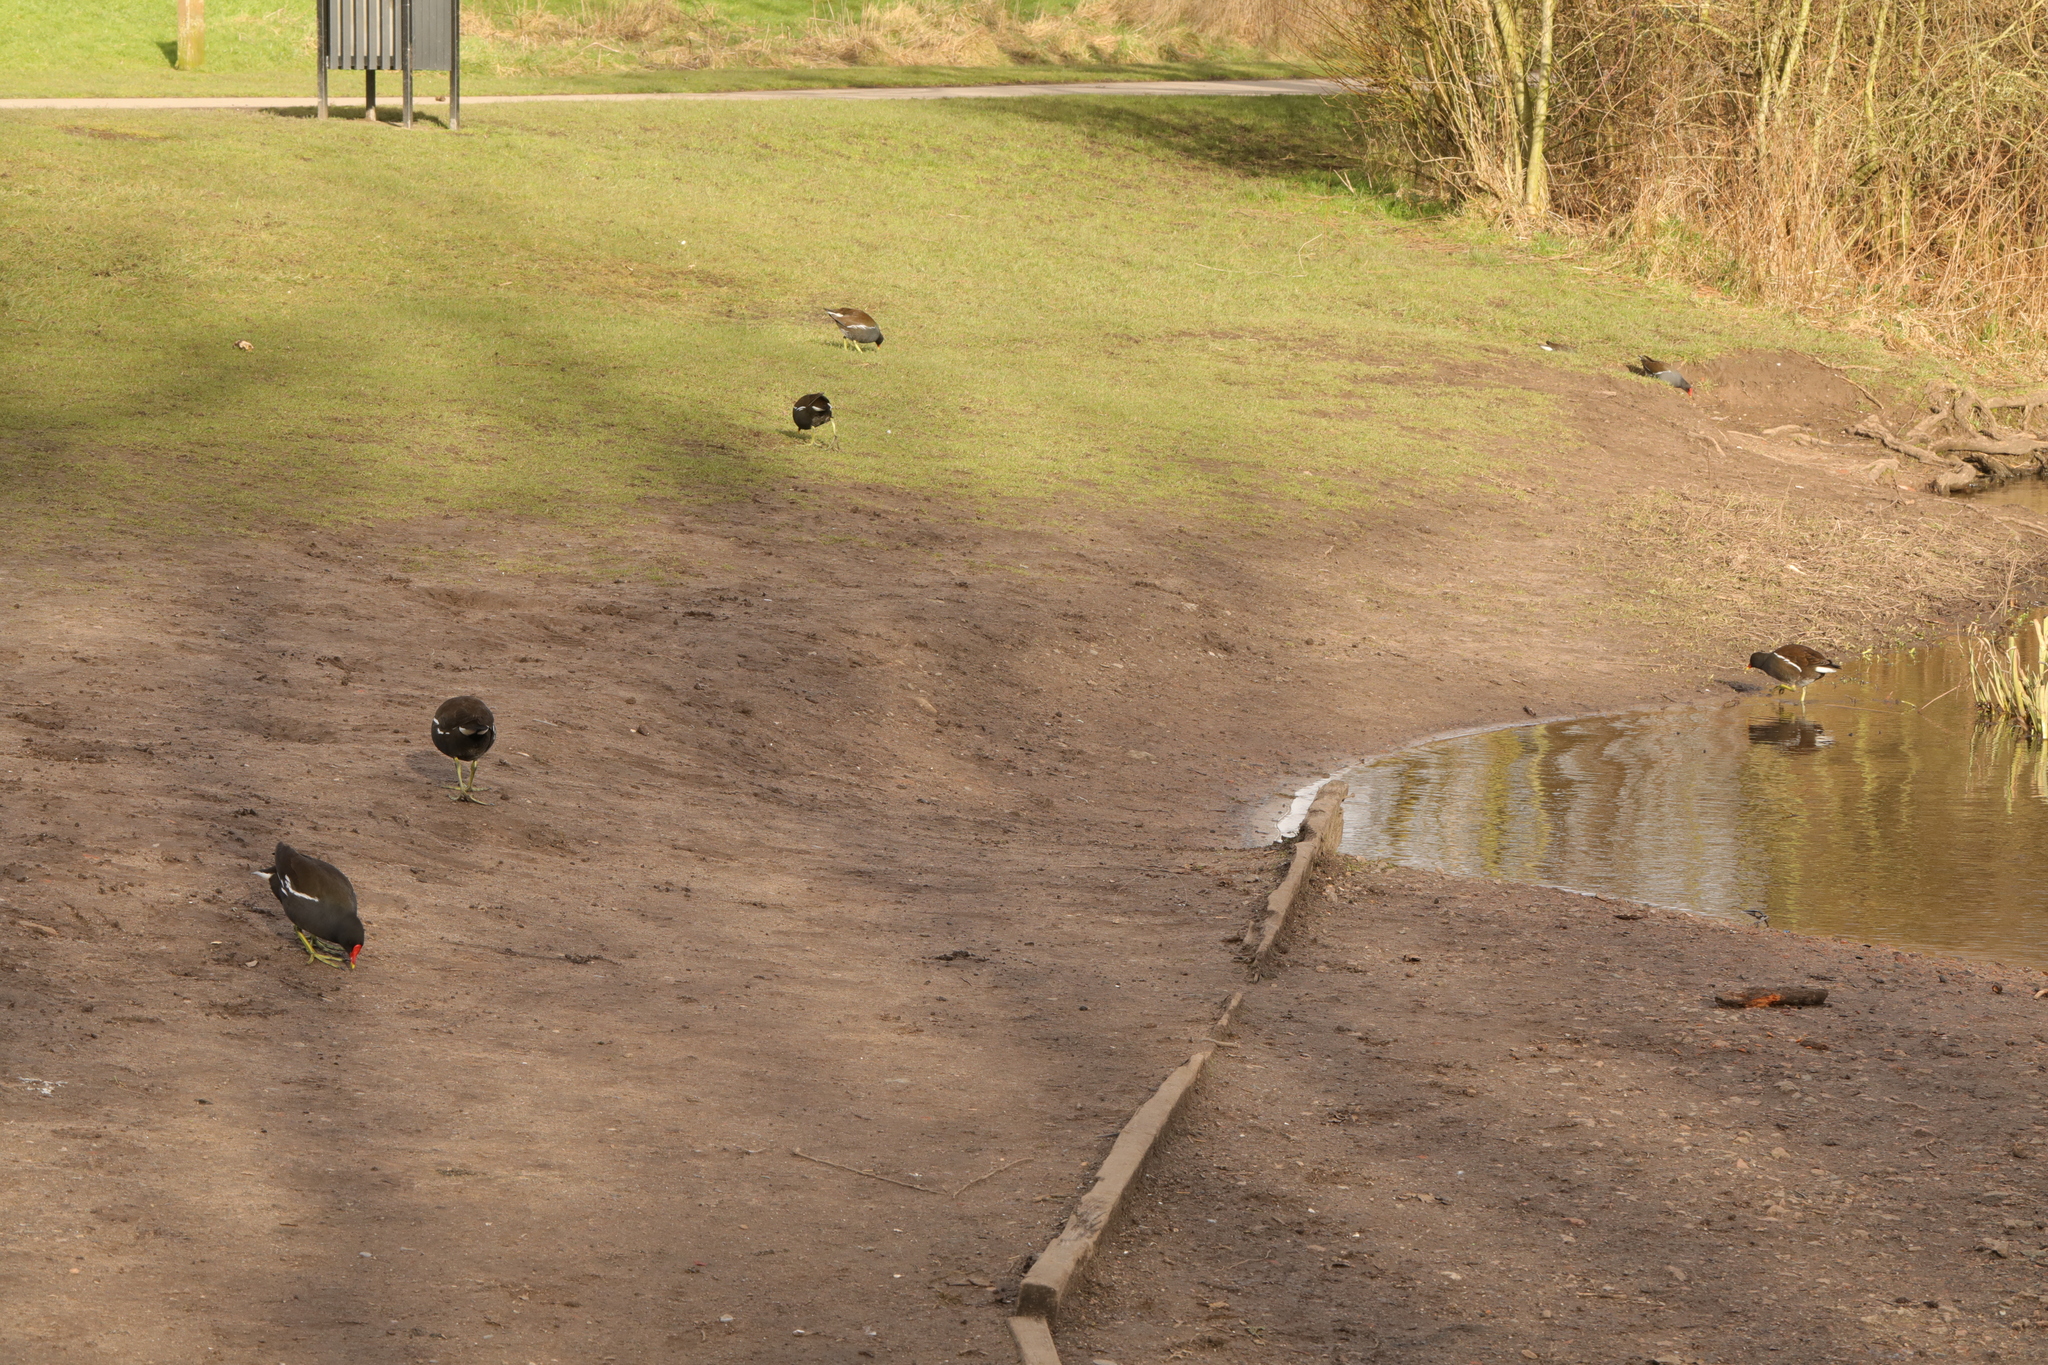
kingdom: Animalia
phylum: Chordata
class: Aves
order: Gruiformes
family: Rallidae
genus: Gallinula
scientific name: Gallinula chloropus
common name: Common moorhen
